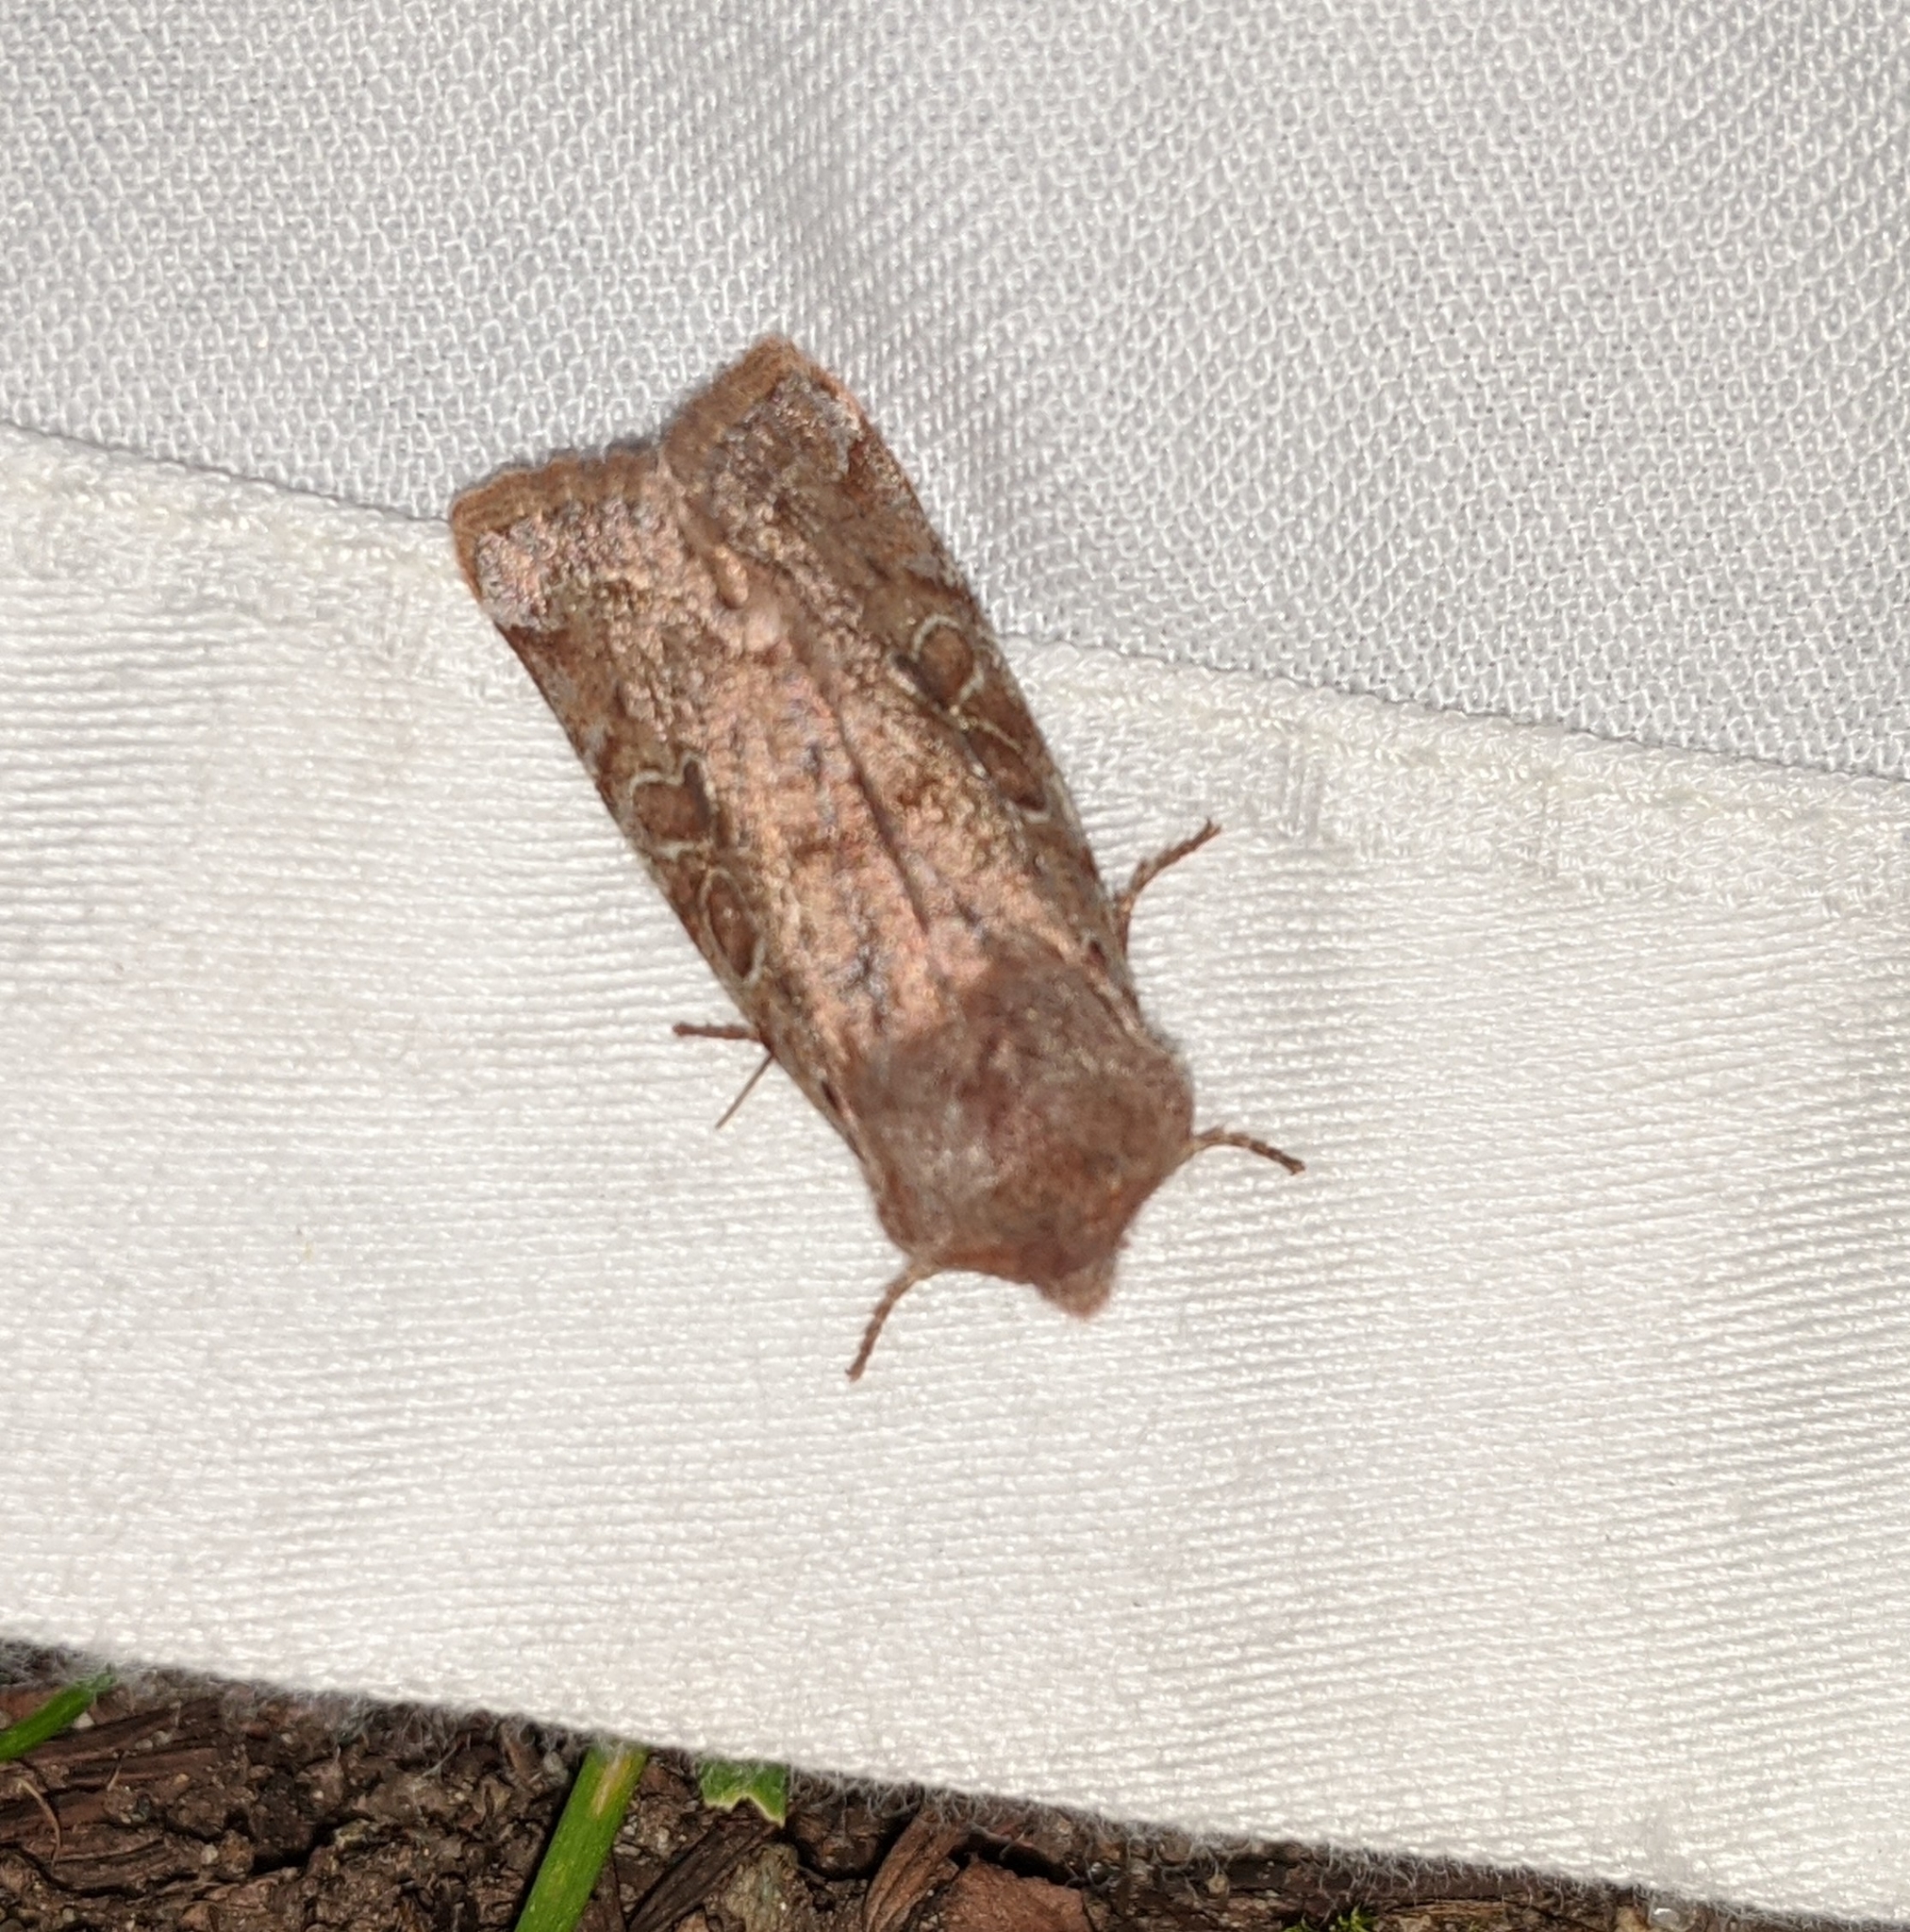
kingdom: Animalia
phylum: Arthropoda
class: Insecta
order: Lepidoptera
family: Noctuidae
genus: Orthosia
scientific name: Orthosia hibisci
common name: Green fruitworm
